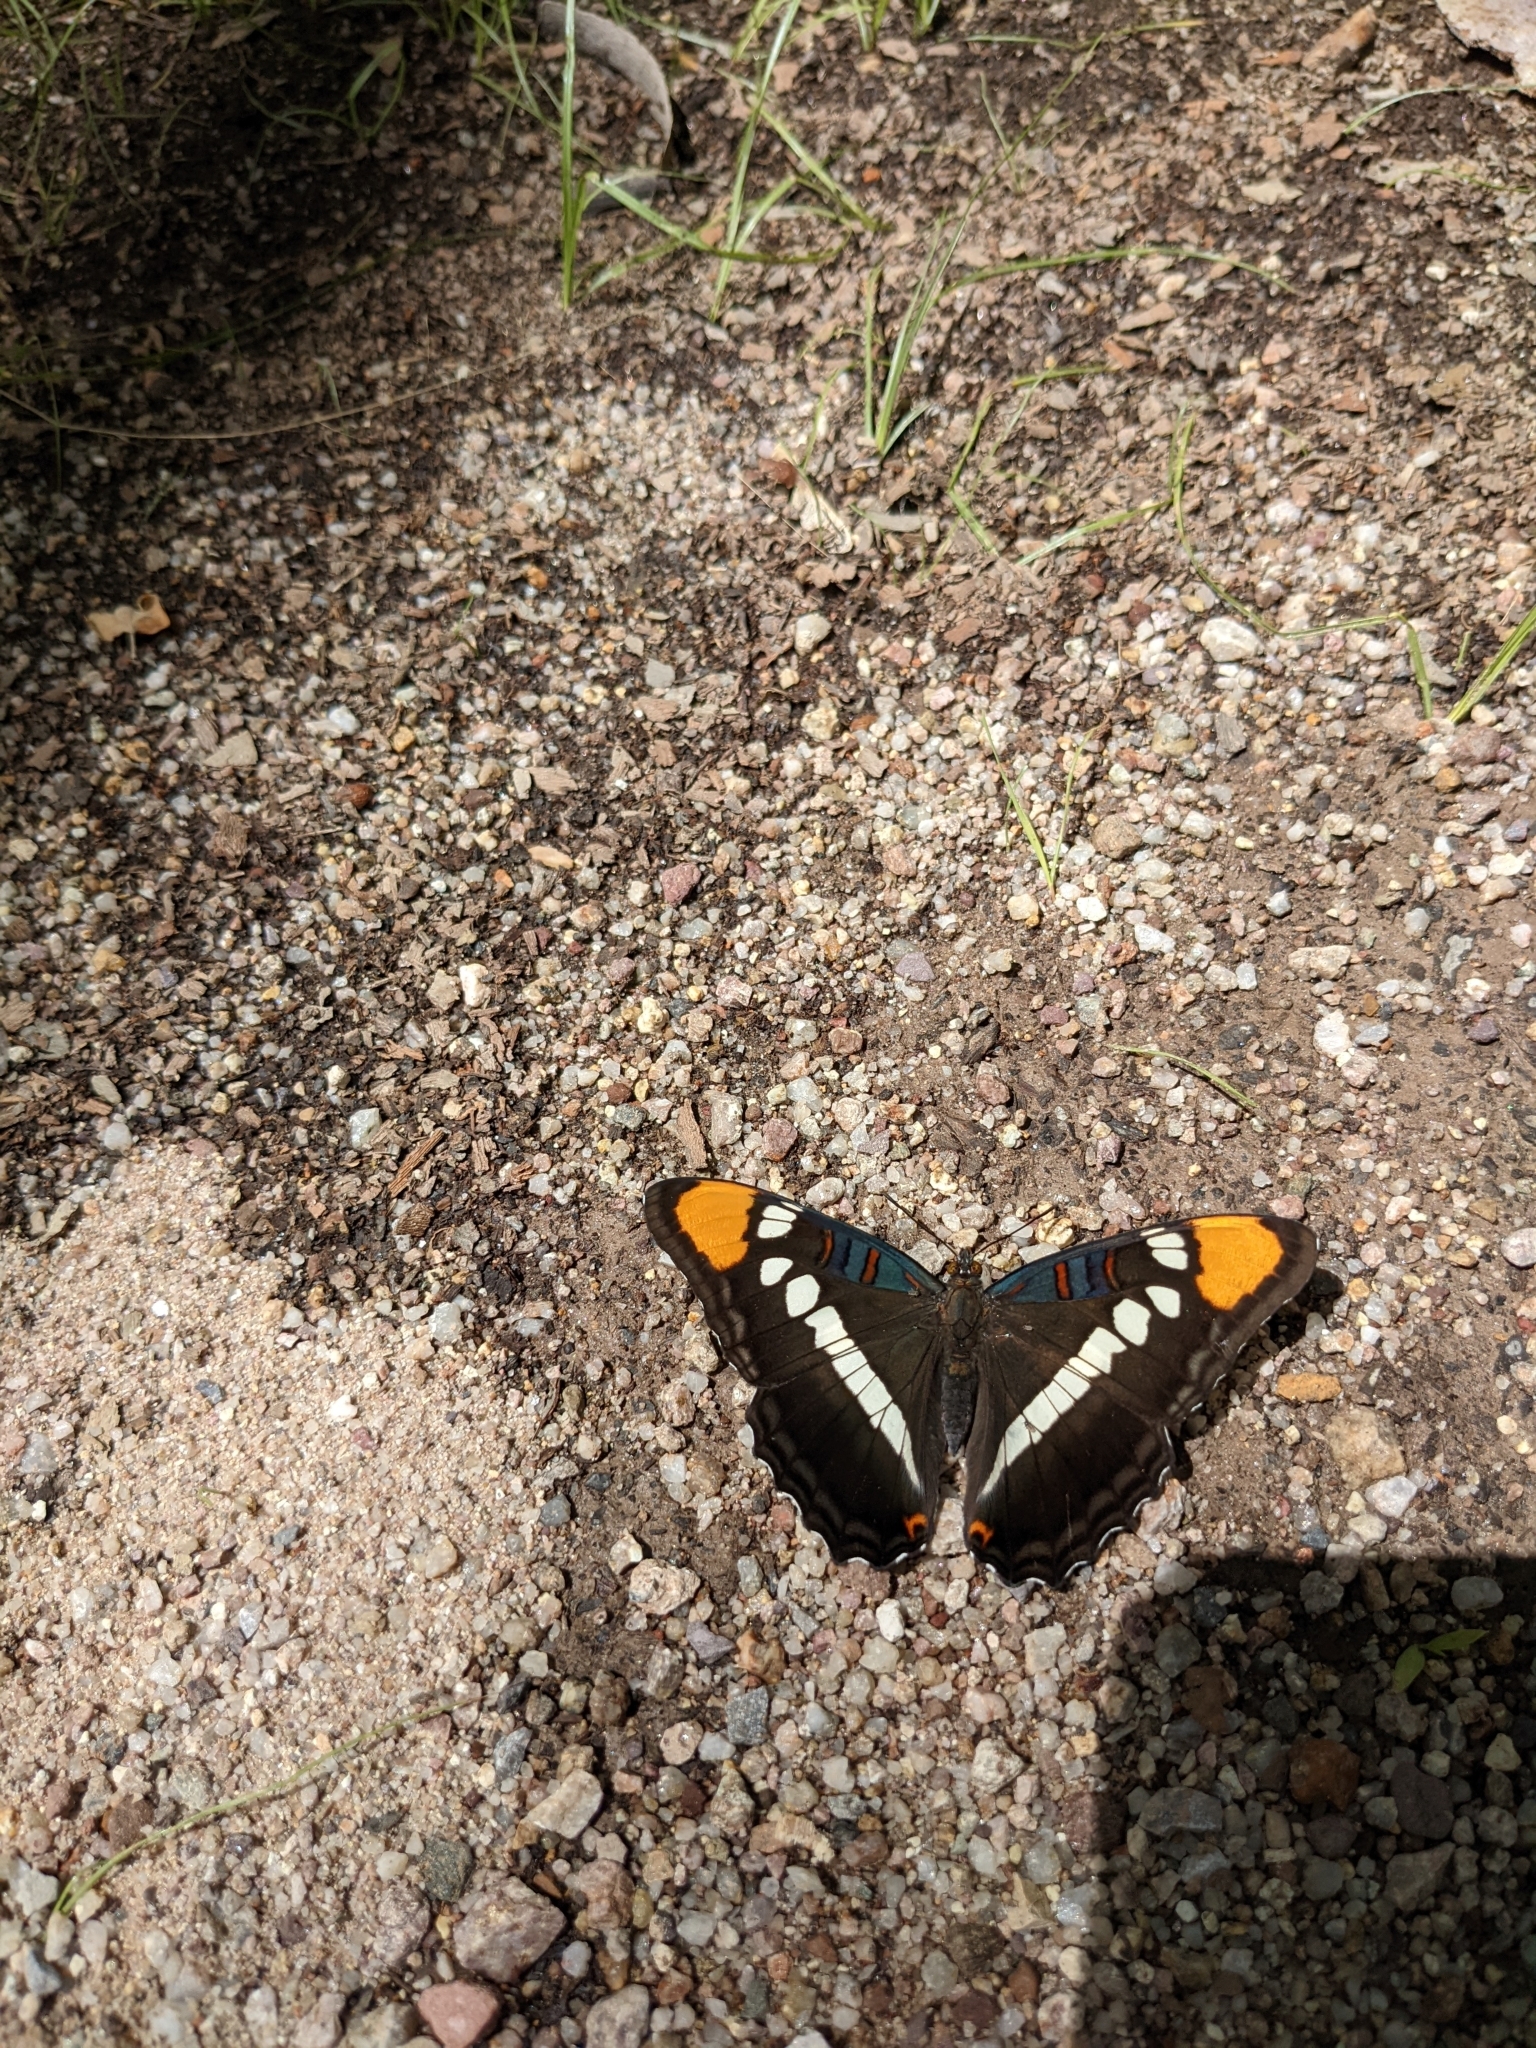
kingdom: Animalia
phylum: Arthropoda
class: Insecta
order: Lepidoptera
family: Nymphalidae
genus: Limenitis
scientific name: Limenitis bredowii
